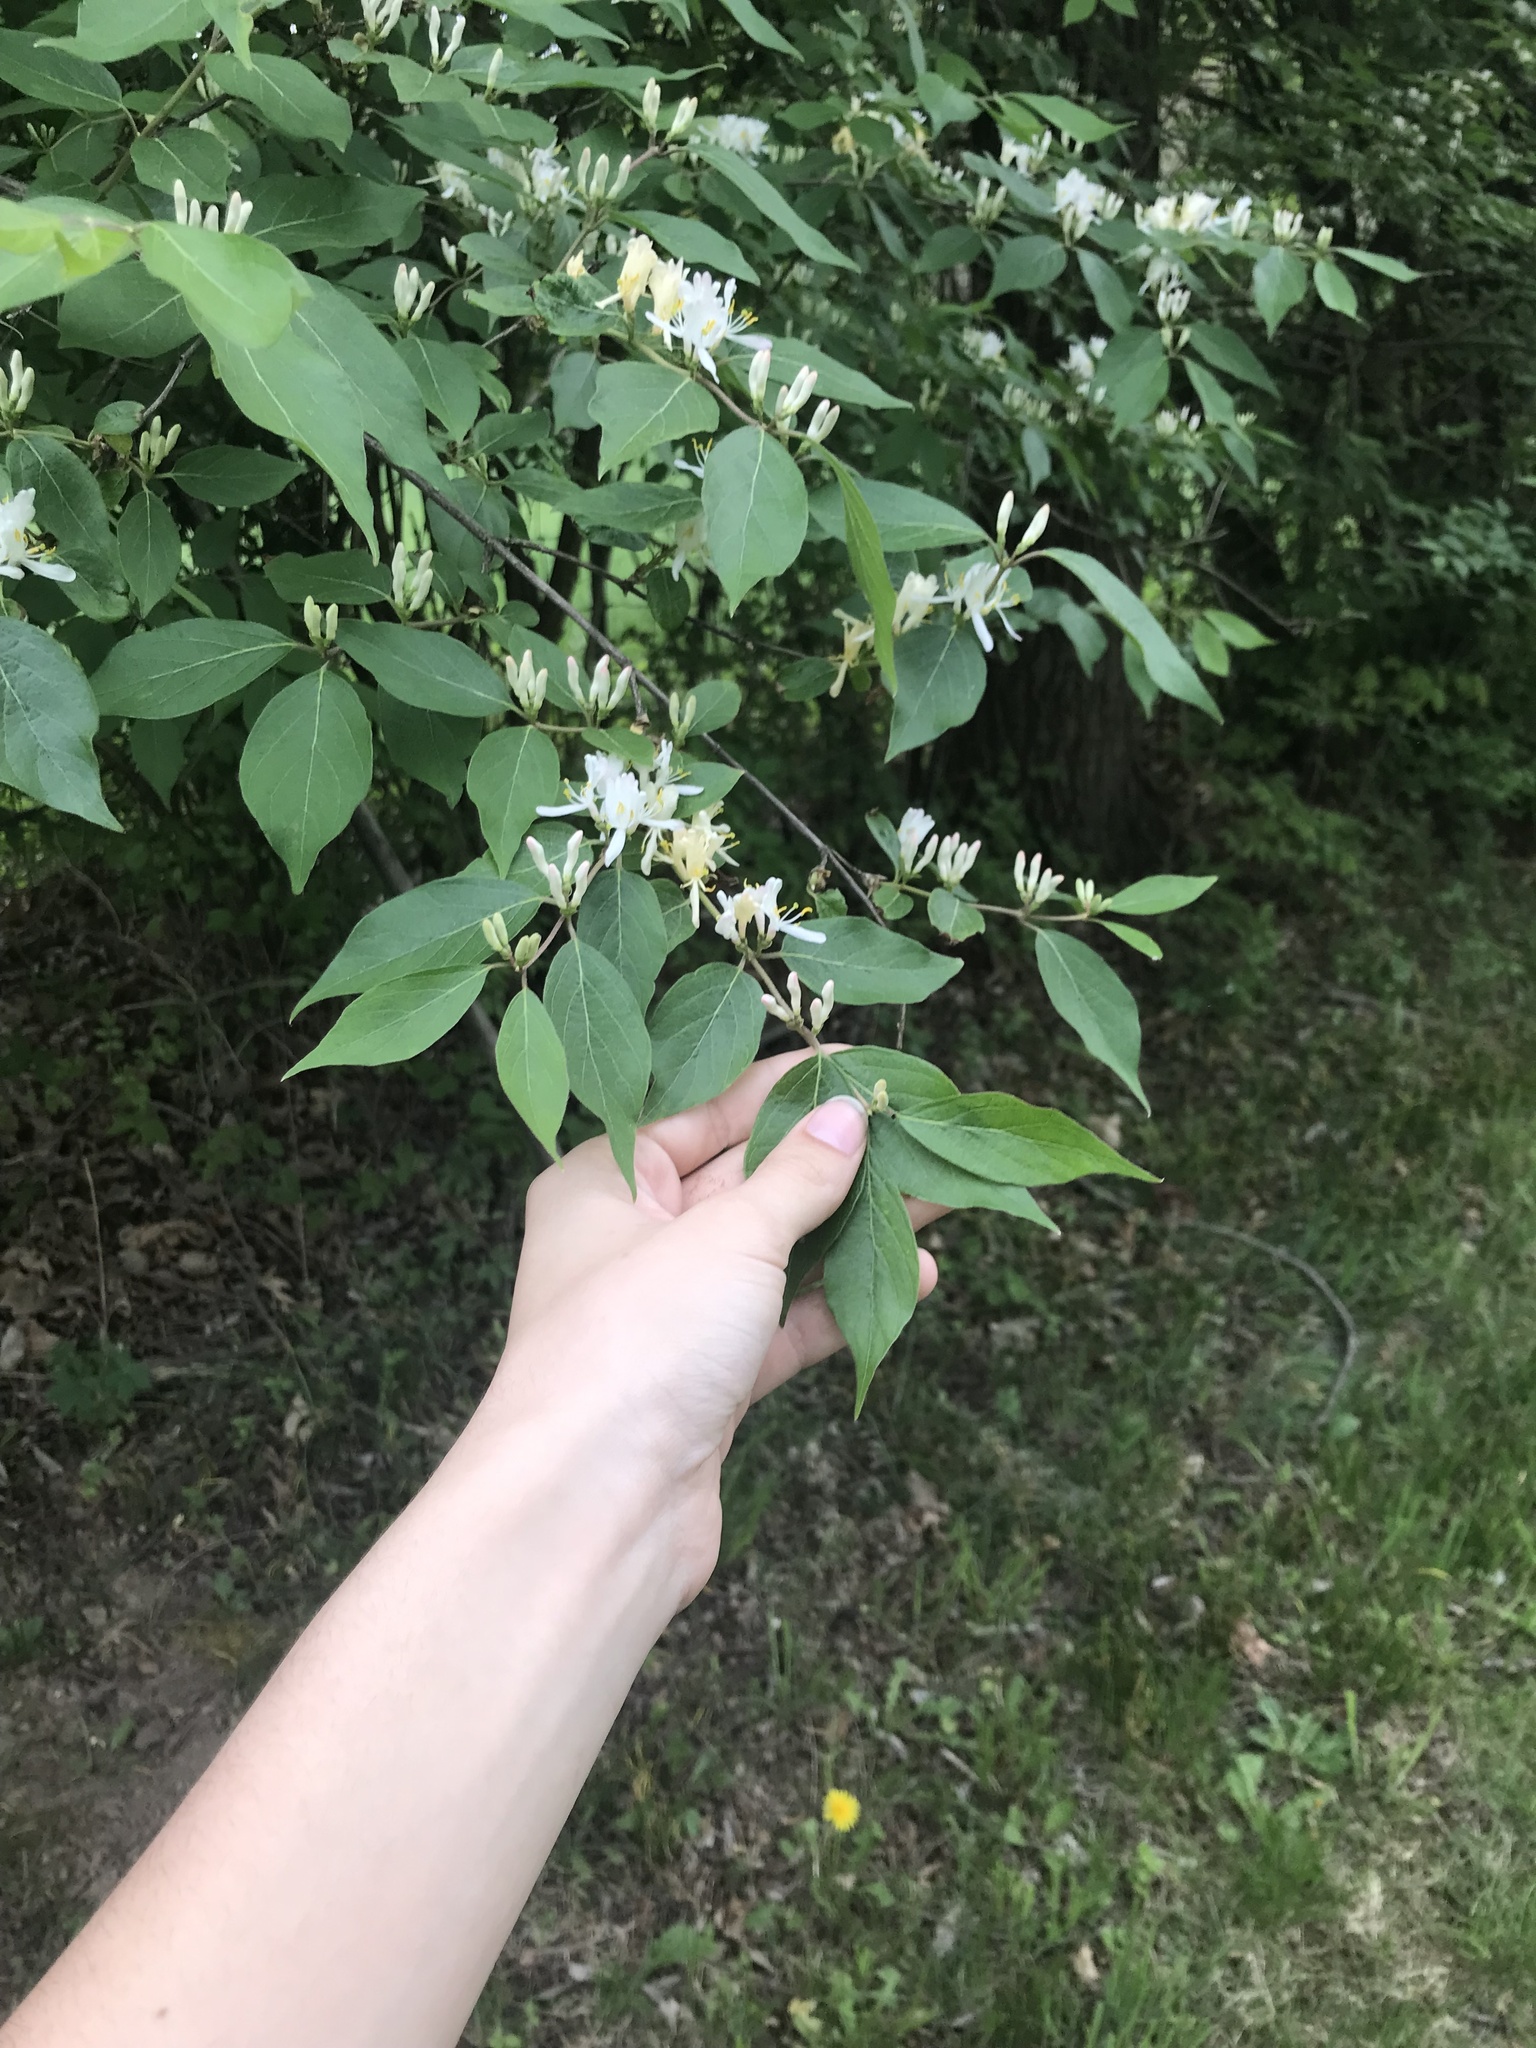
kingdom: Plantae
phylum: Tracheophyta
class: Magnoliopsida
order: Dipsacales
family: Caprifoliaceae
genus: Lonicera
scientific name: Lonicera maackii
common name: Amur honeysuckle
